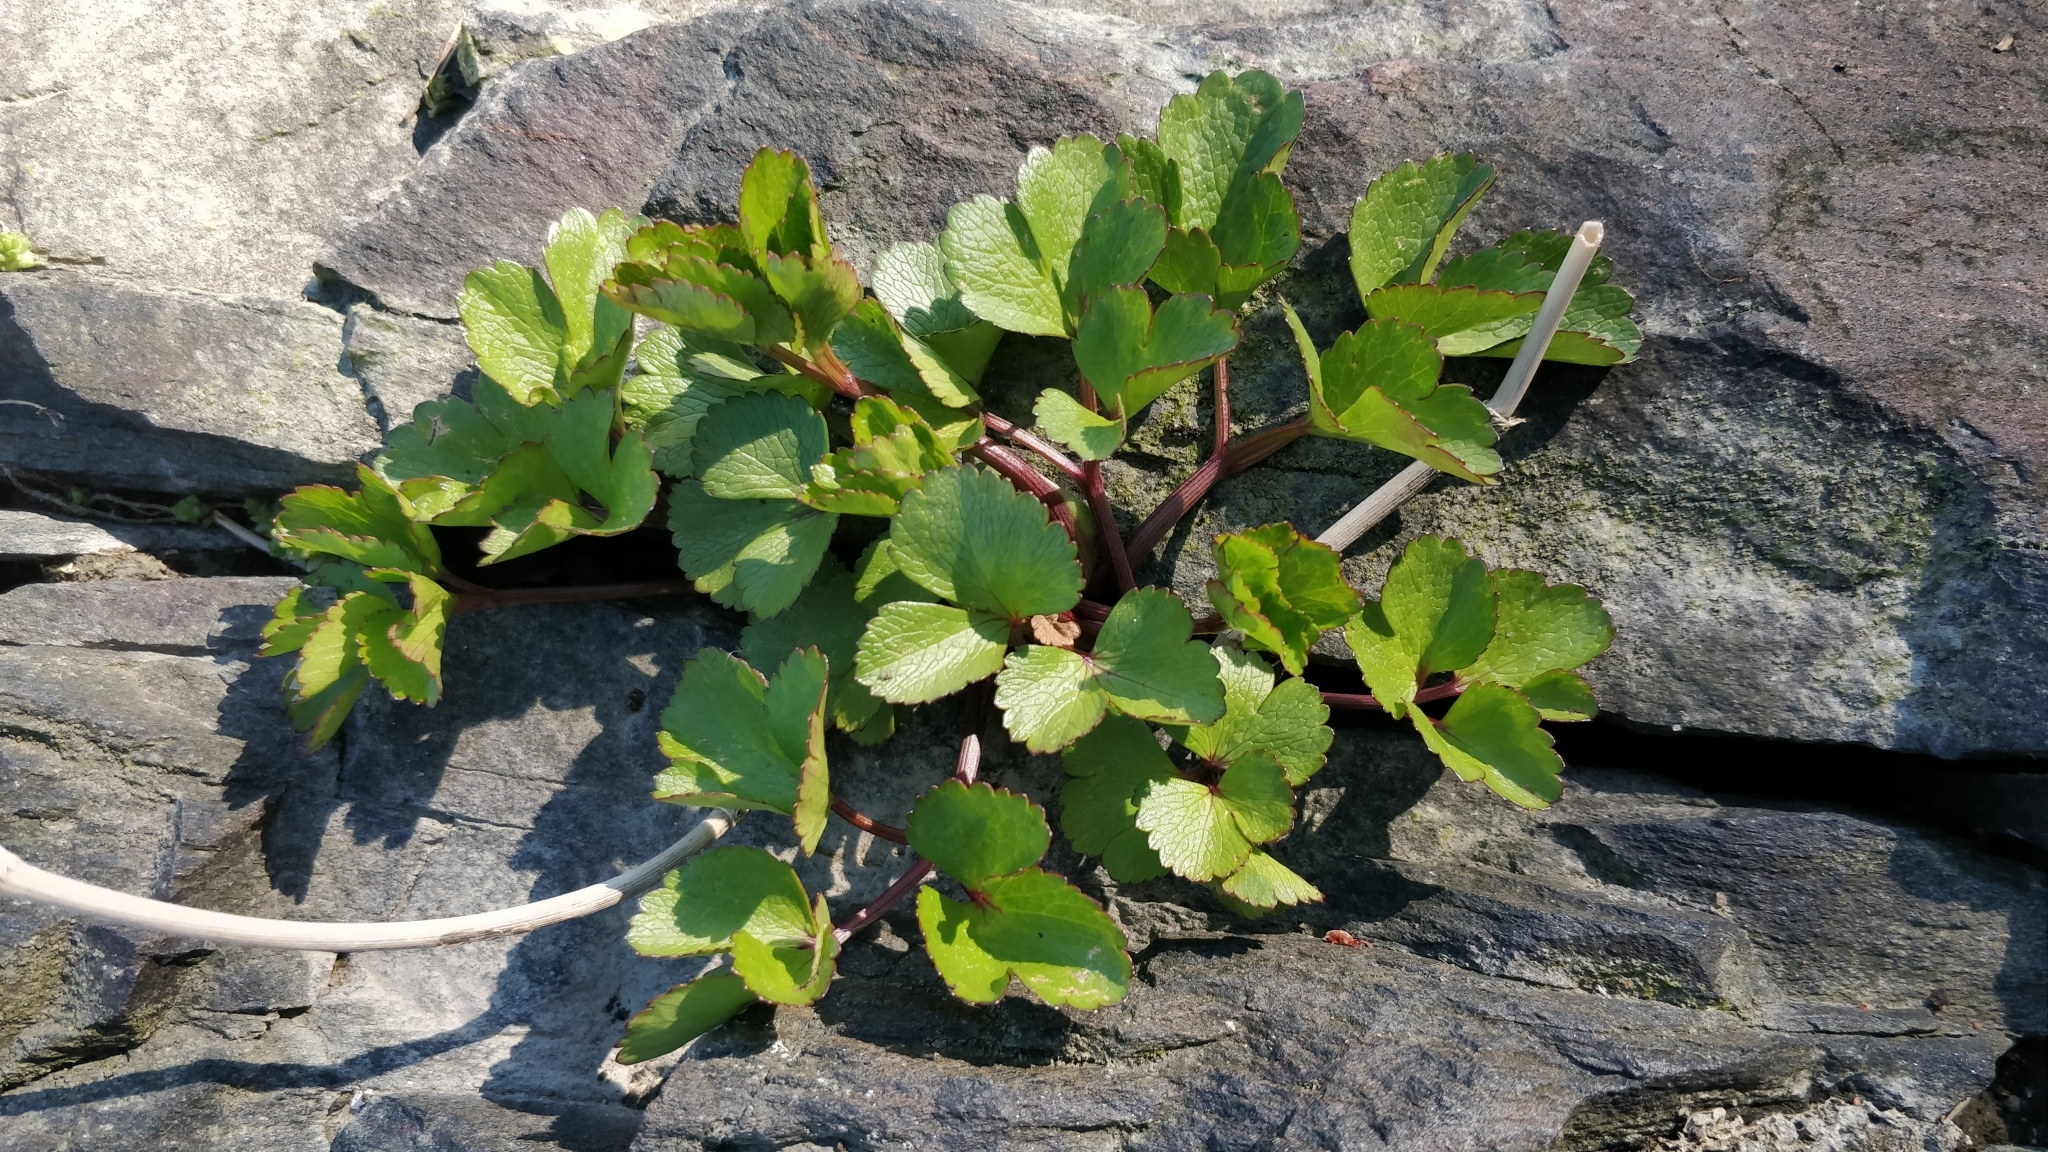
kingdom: Plantae
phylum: Tracheophyta
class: Magnoliopsida
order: Apiales
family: Apiaceae
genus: Ligusticum
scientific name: Ligusticum scothicum
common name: Beach lovage
